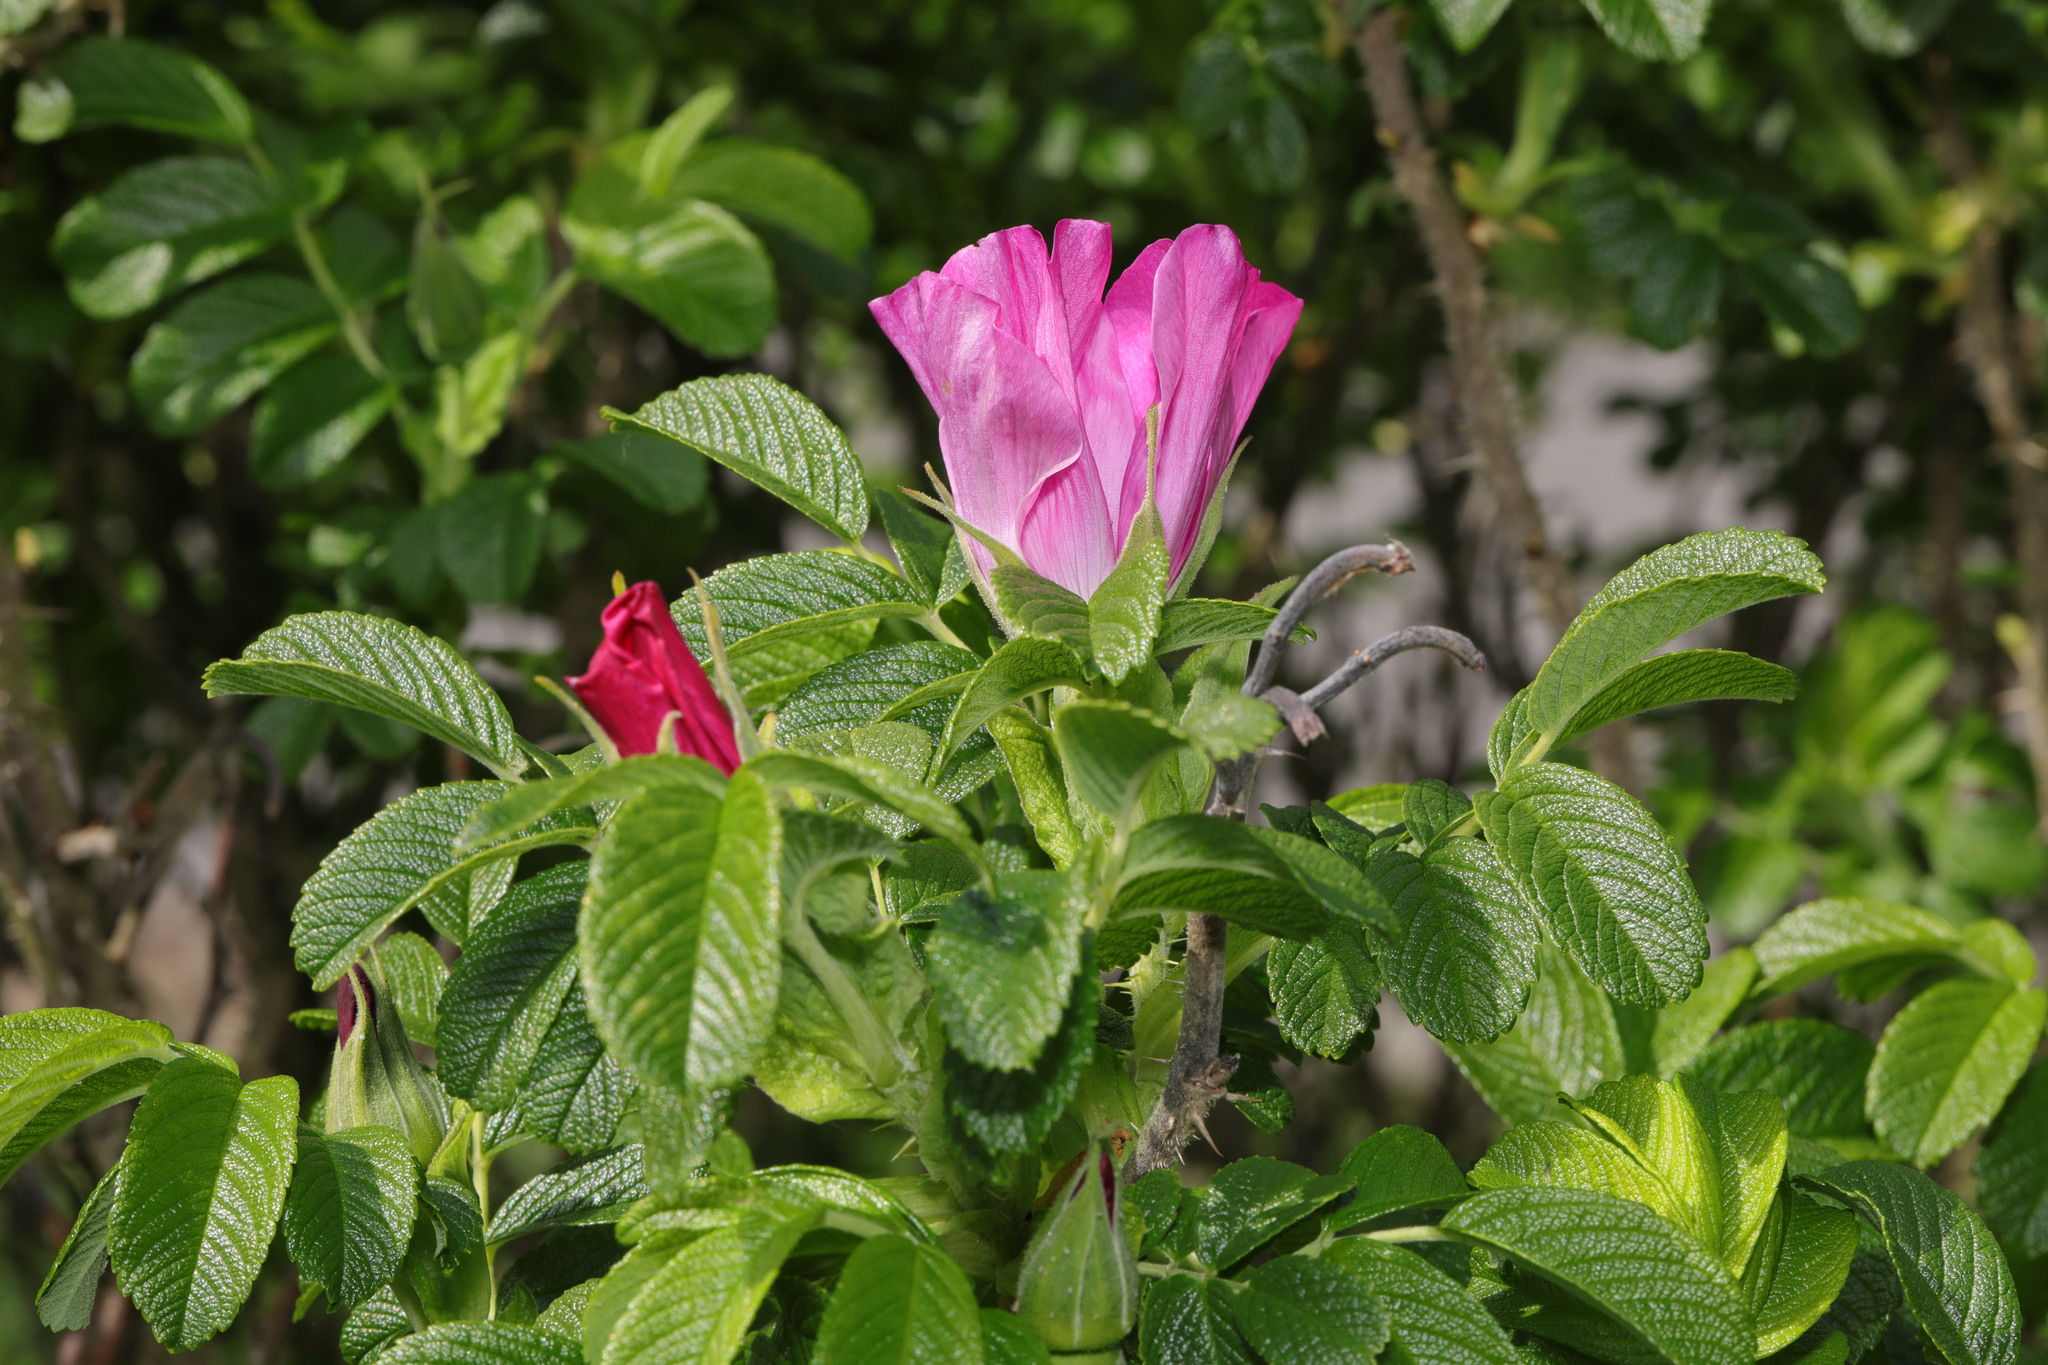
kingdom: Plantae
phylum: Tracheophyta
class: Magnoliopsida
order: Rosales
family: Rosaceae
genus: Rosa
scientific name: Rosa rugosa
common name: Japanese rose
